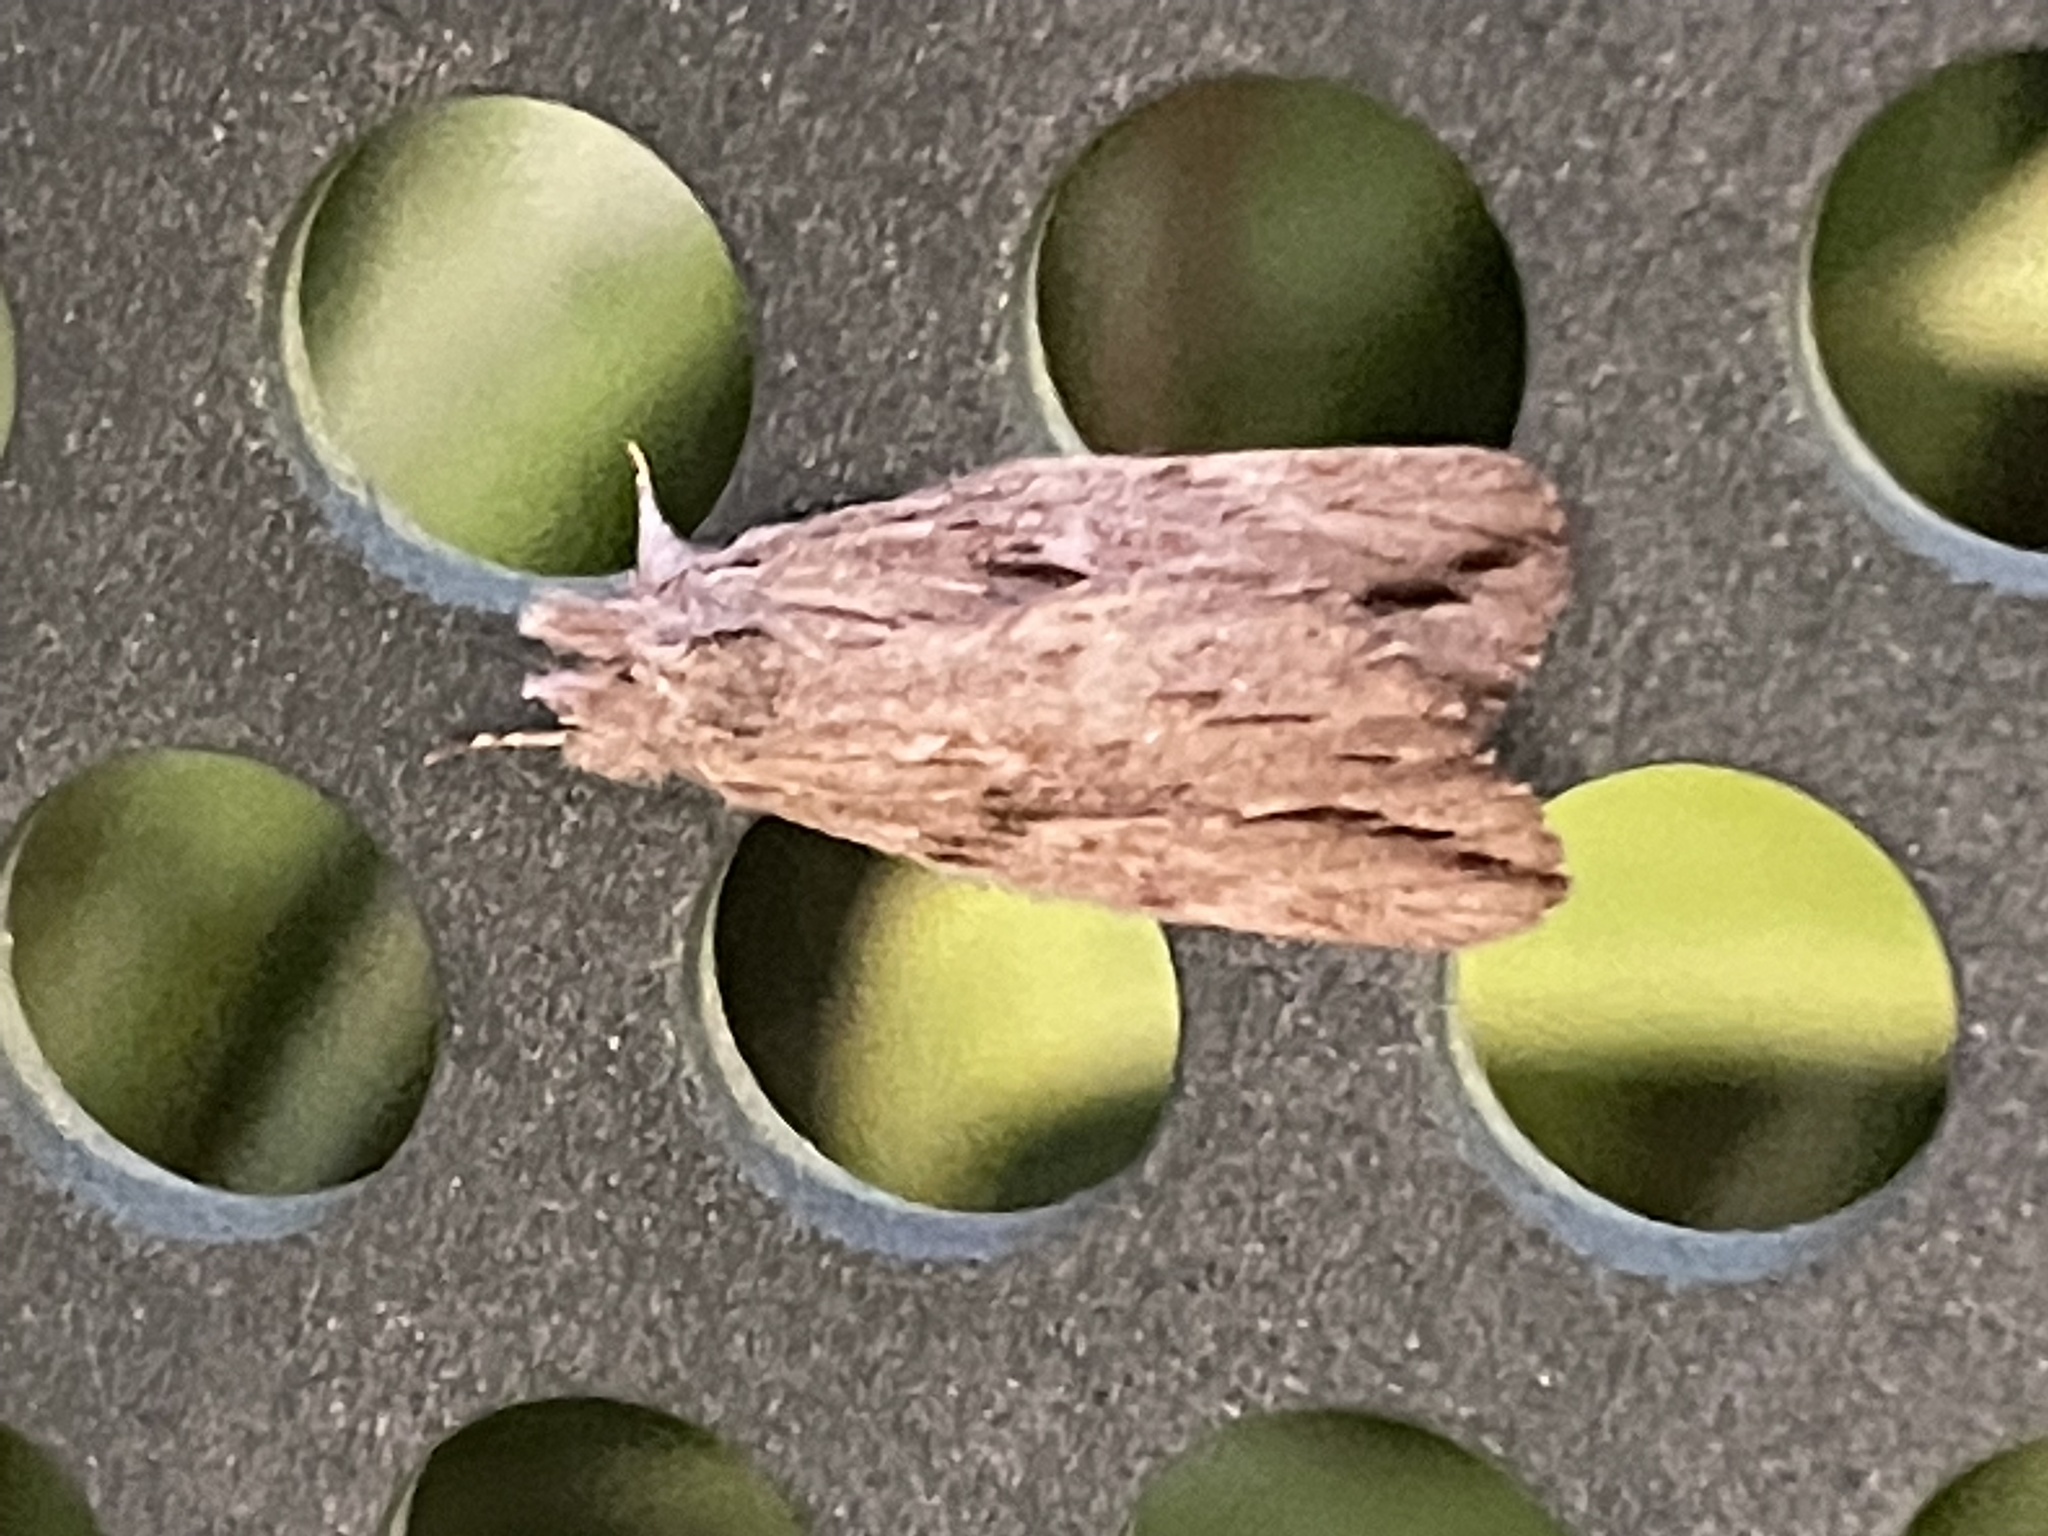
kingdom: Animalia
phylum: Arthropoda
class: Insecta
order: Lepidoptera
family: Notodontidae
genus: Ecnomodes
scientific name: Ecnomodes sagittaria
